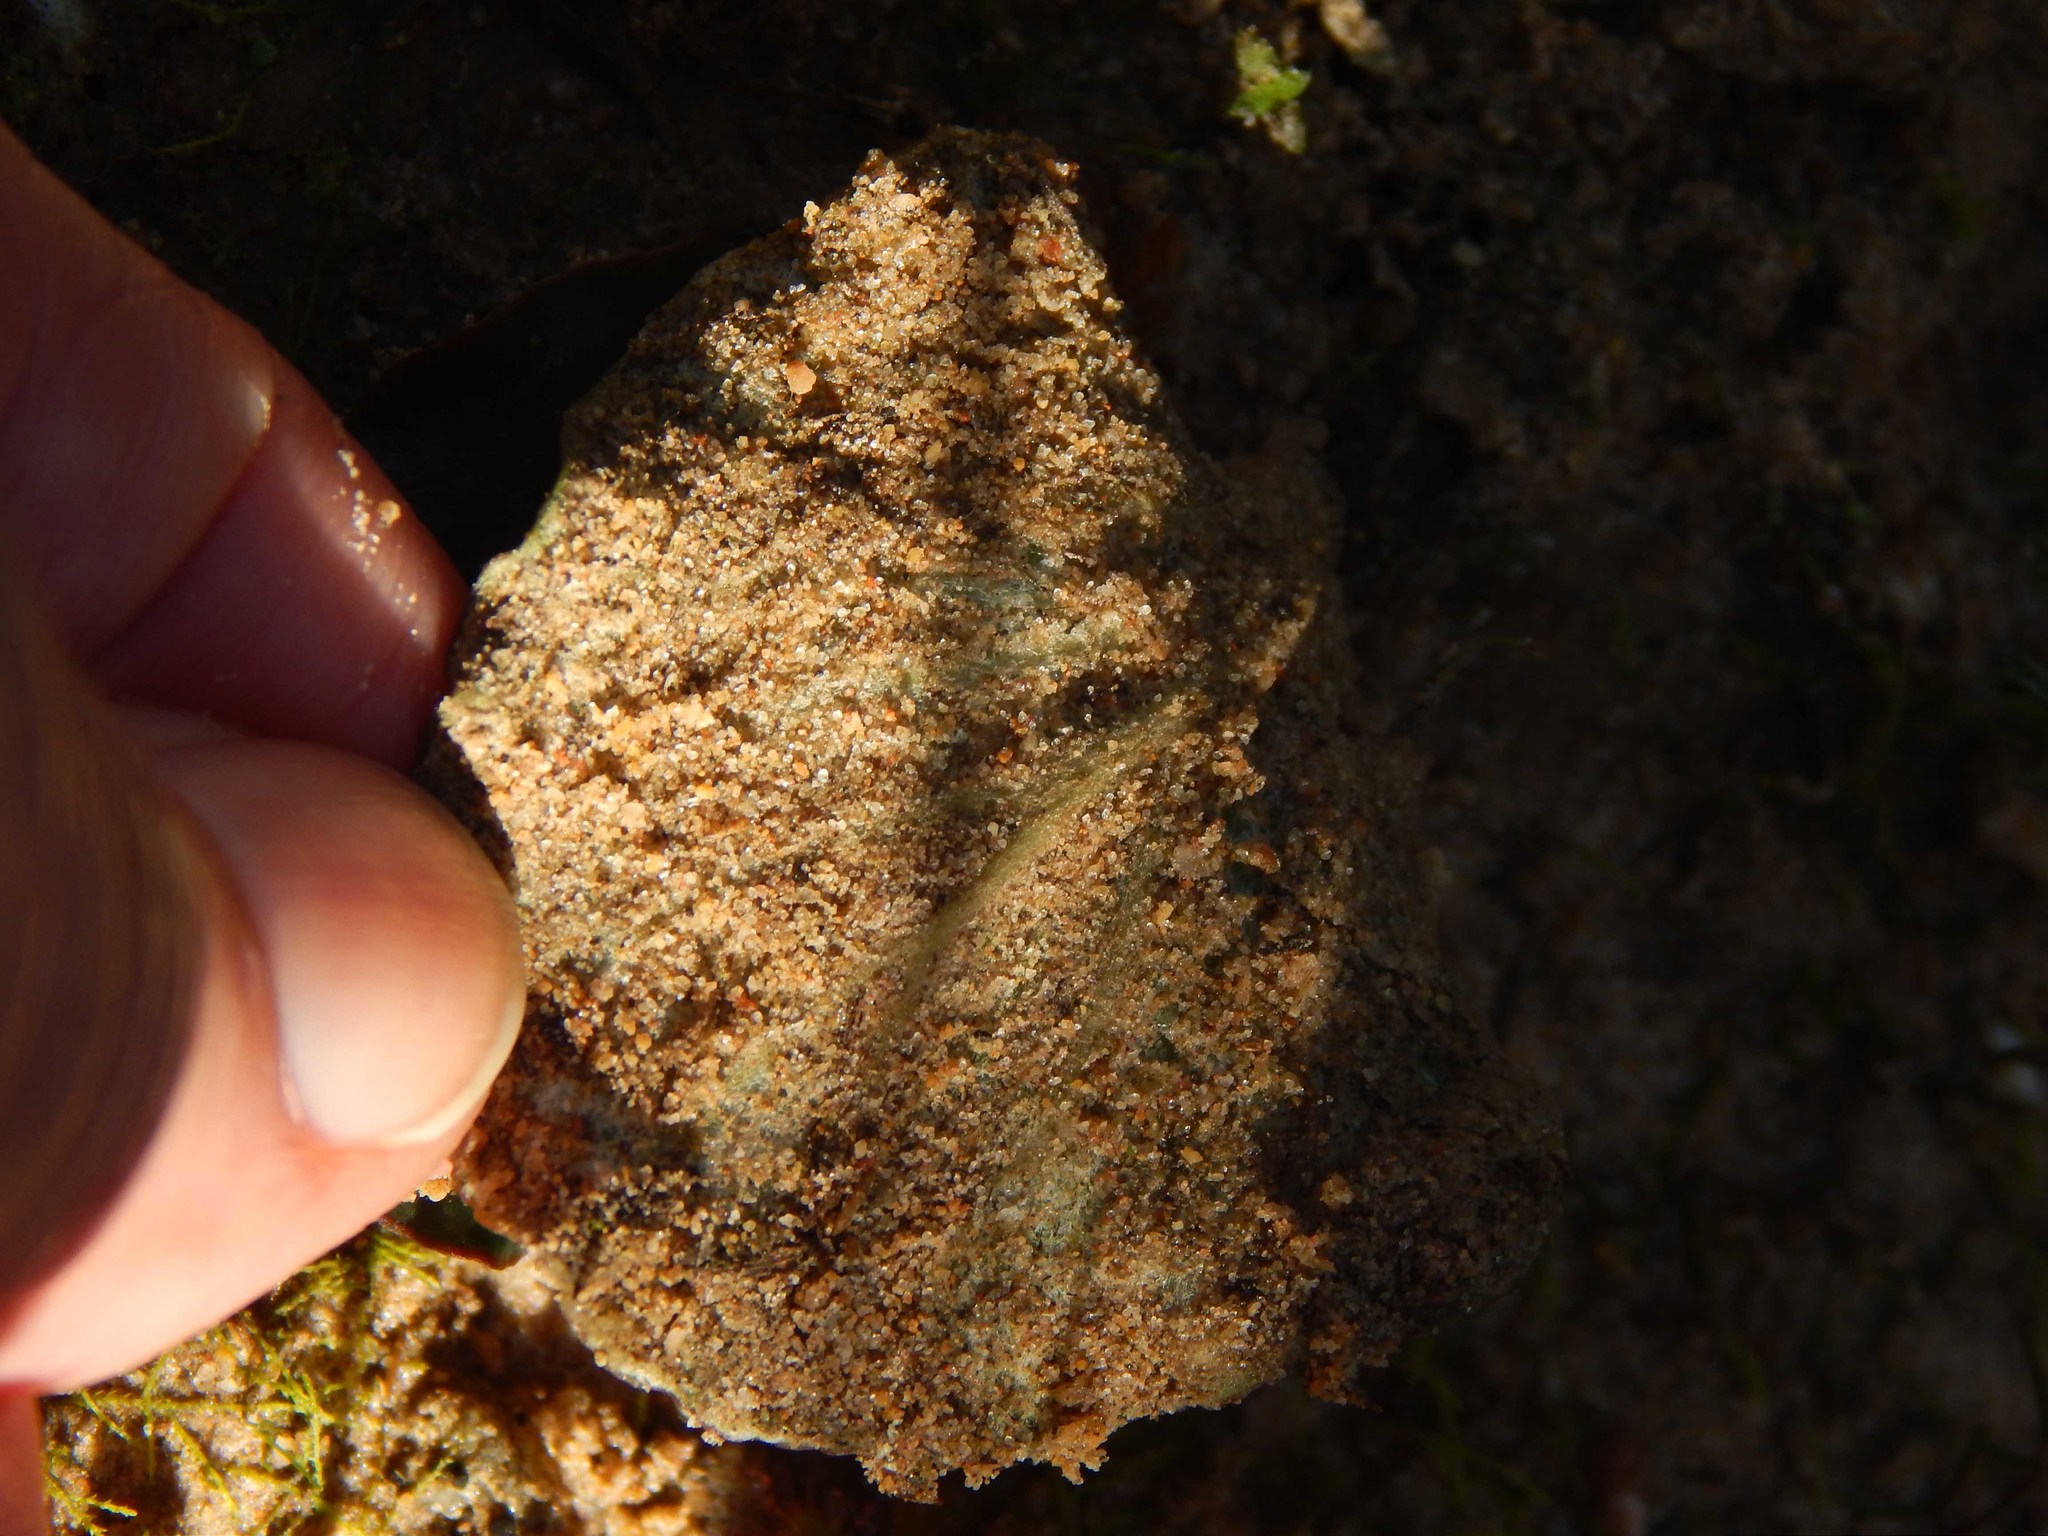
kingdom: Plantae
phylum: Tracheophyta
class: Magnoliopsida
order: Geraniales
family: Geraniaceae
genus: Pelargonium
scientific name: Pelargonium asarifolium
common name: Asarum-leaf pelargonium
